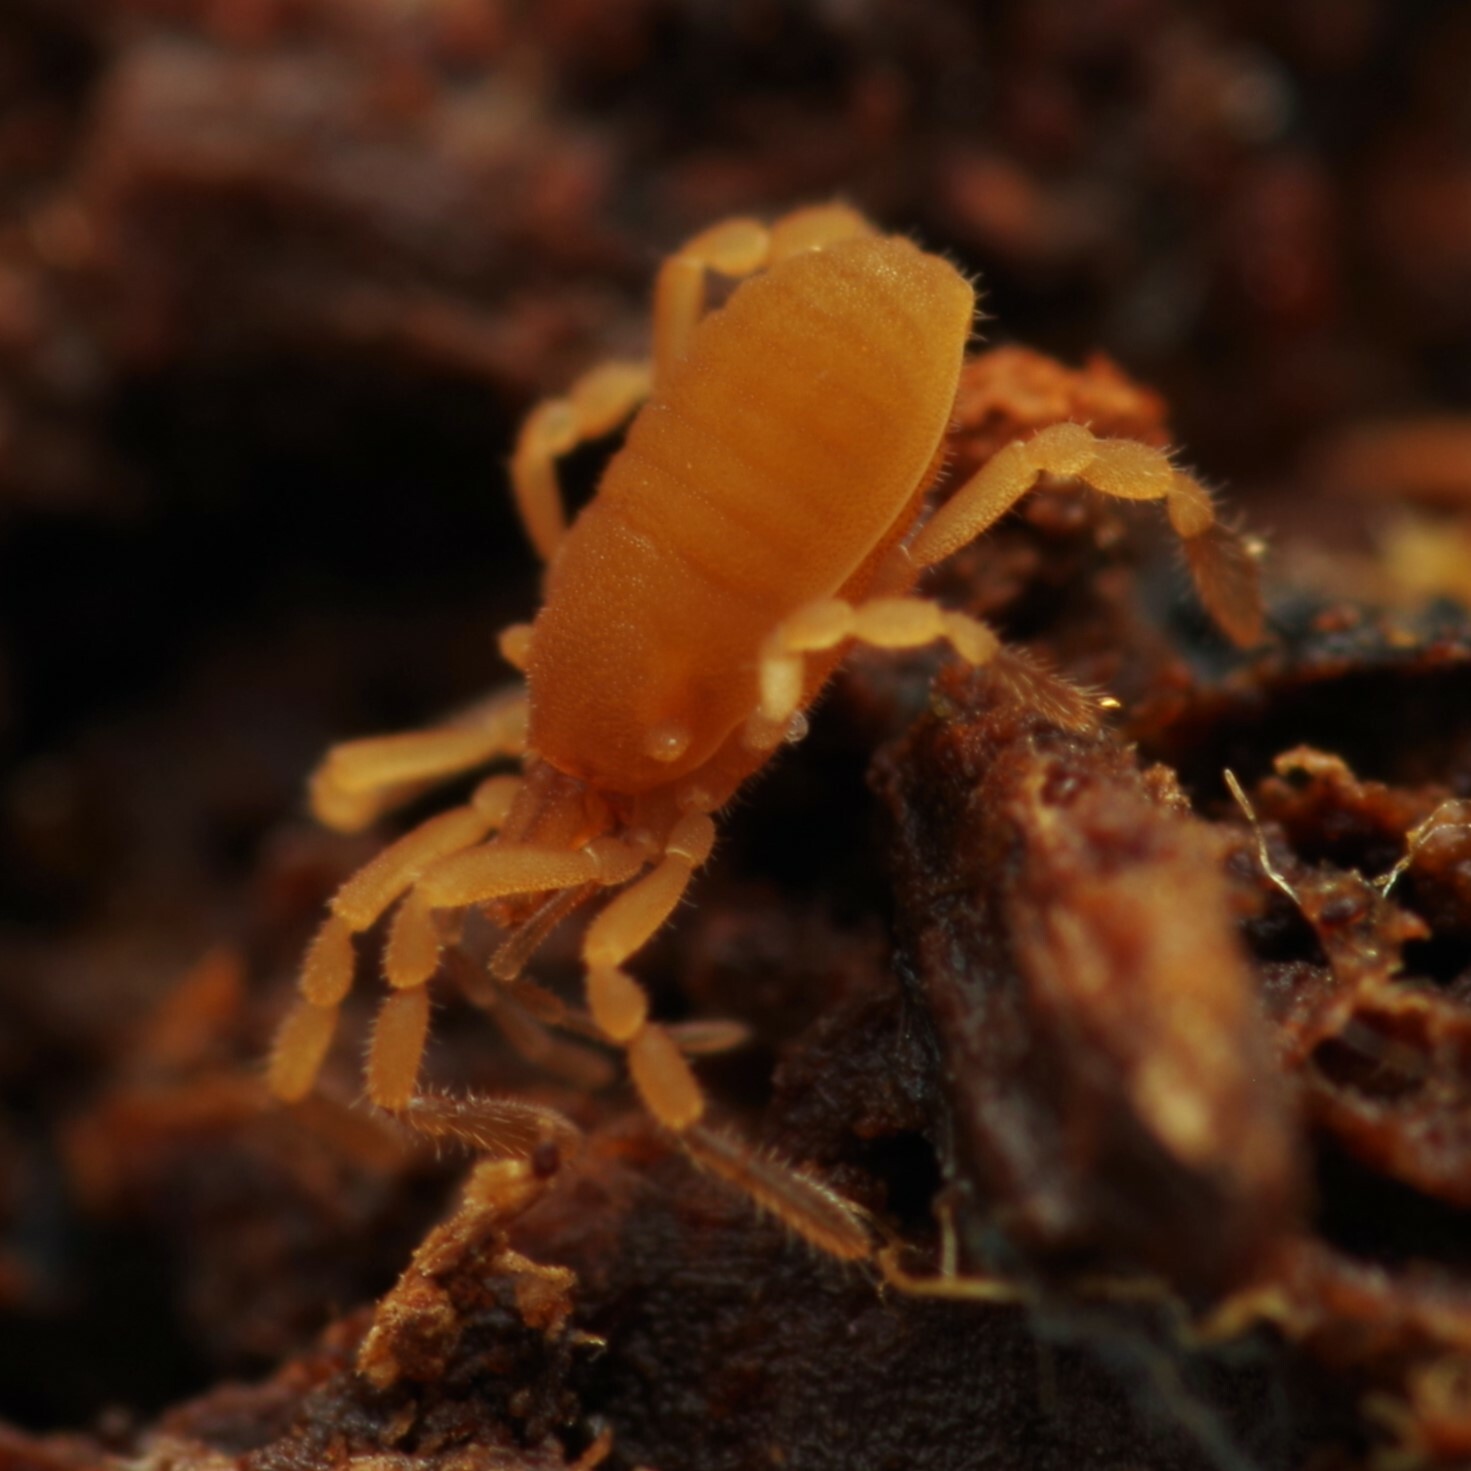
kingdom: Animalia
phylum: Arthropoda
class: Arachnida
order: Opiliones
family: Sironidae
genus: Siro
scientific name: Siro rubens
